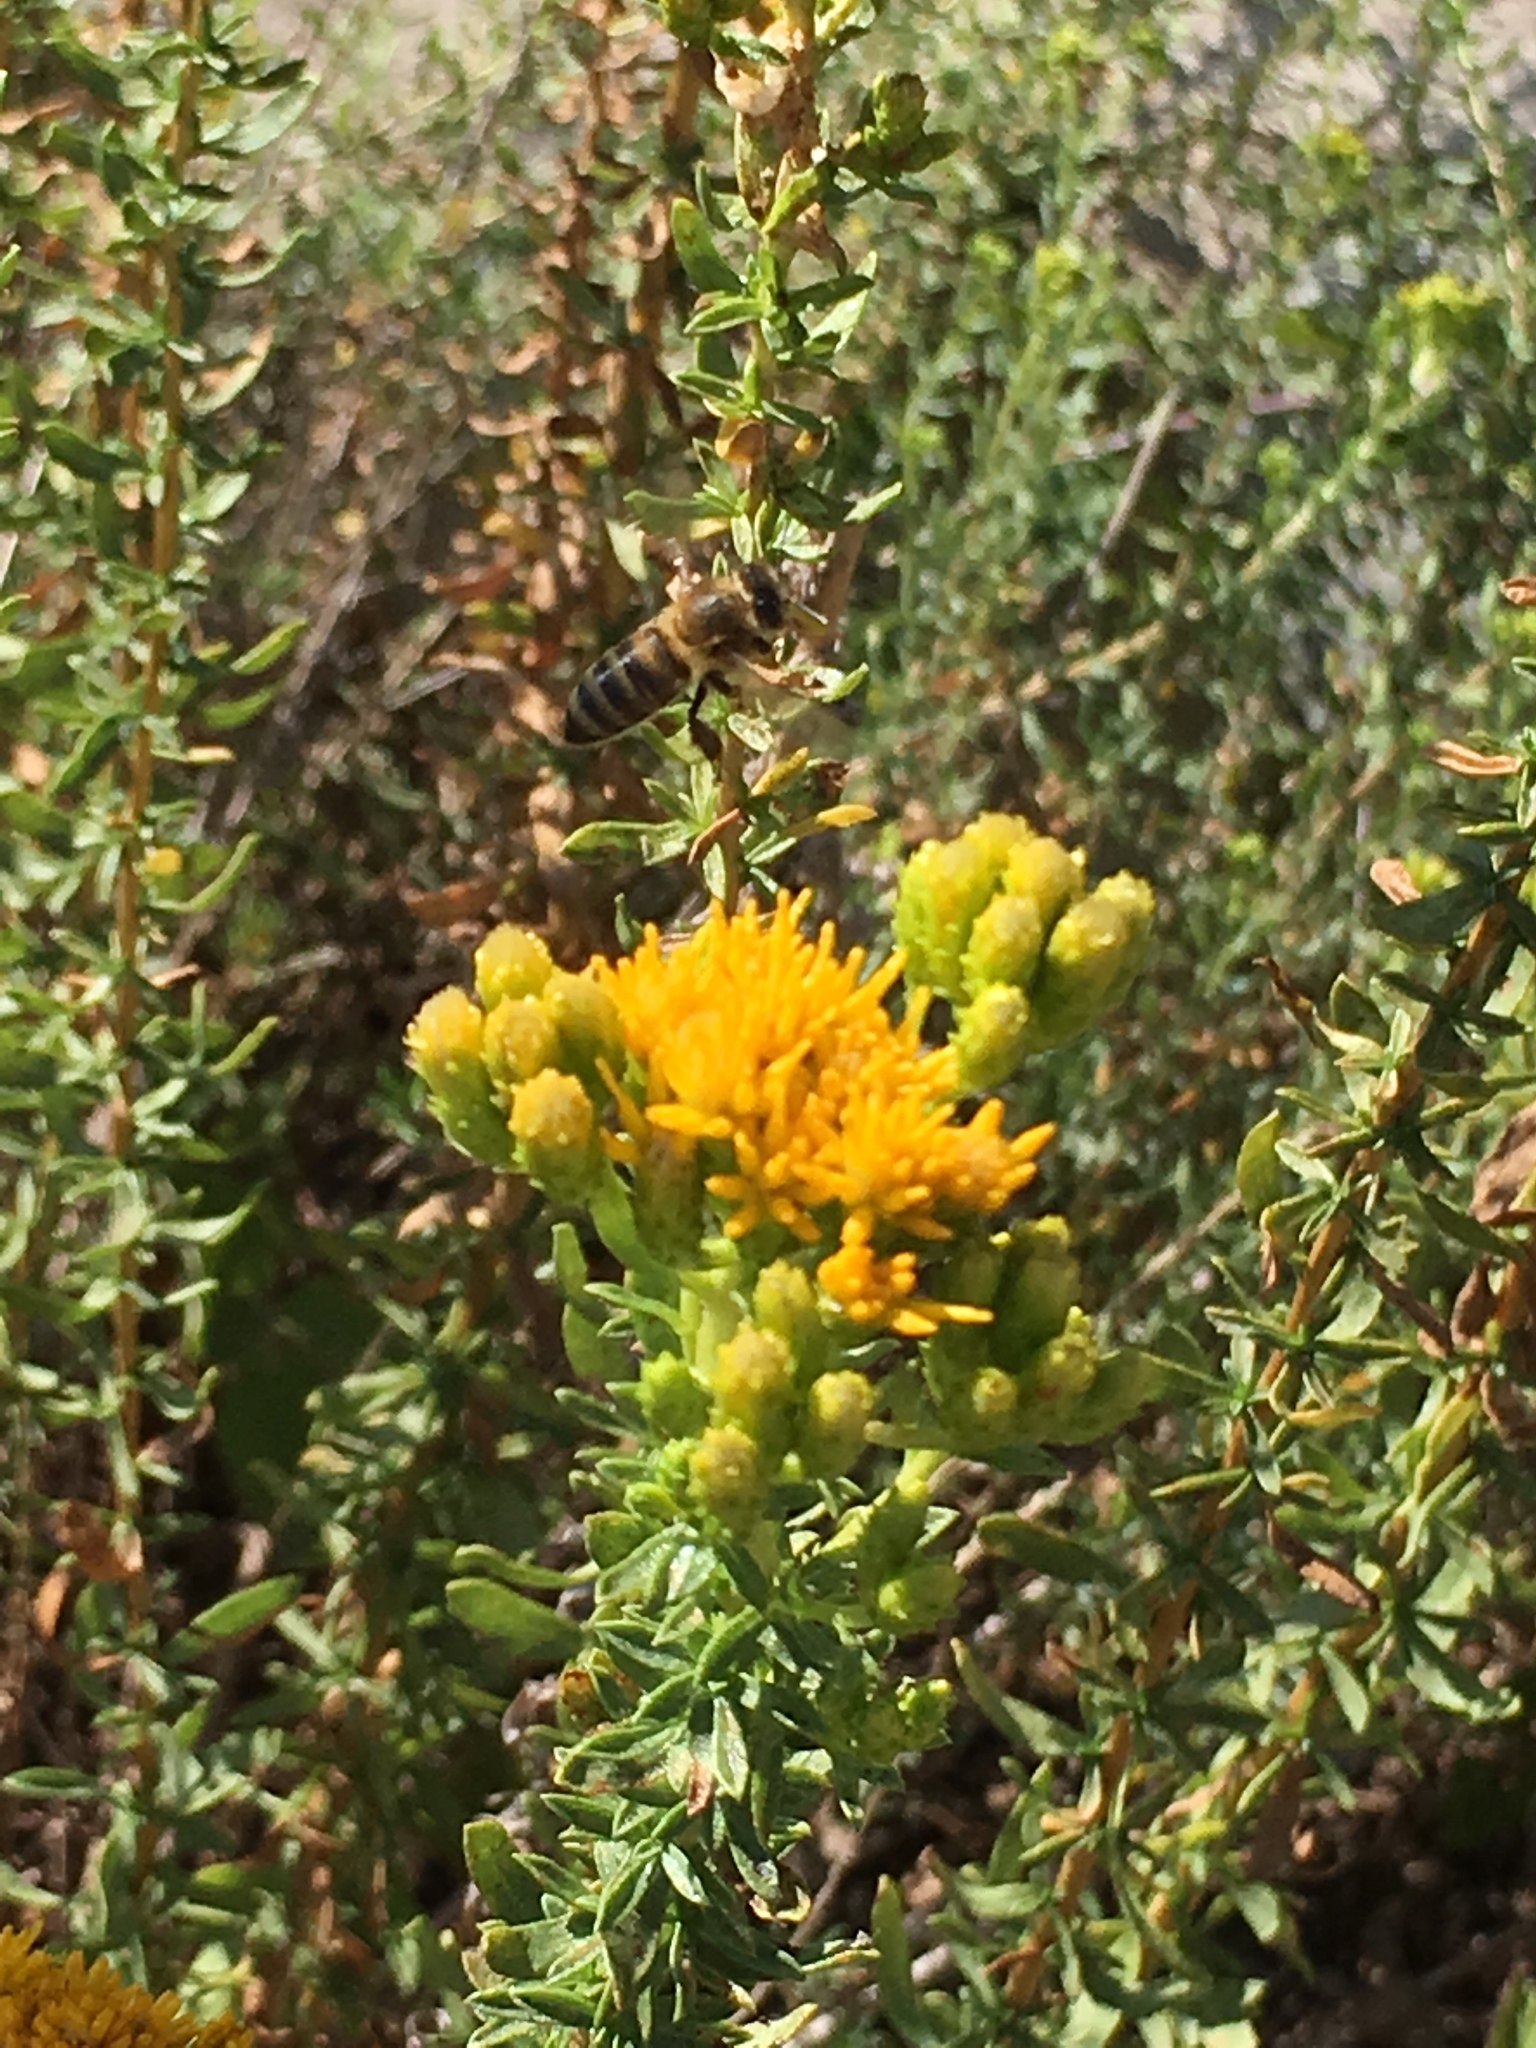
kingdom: Plantae
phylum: Tracheophyta
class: Magnoliopsida
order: Asterales
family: Asteraceae
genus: Isocoma
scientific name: Isocoma menziesii
